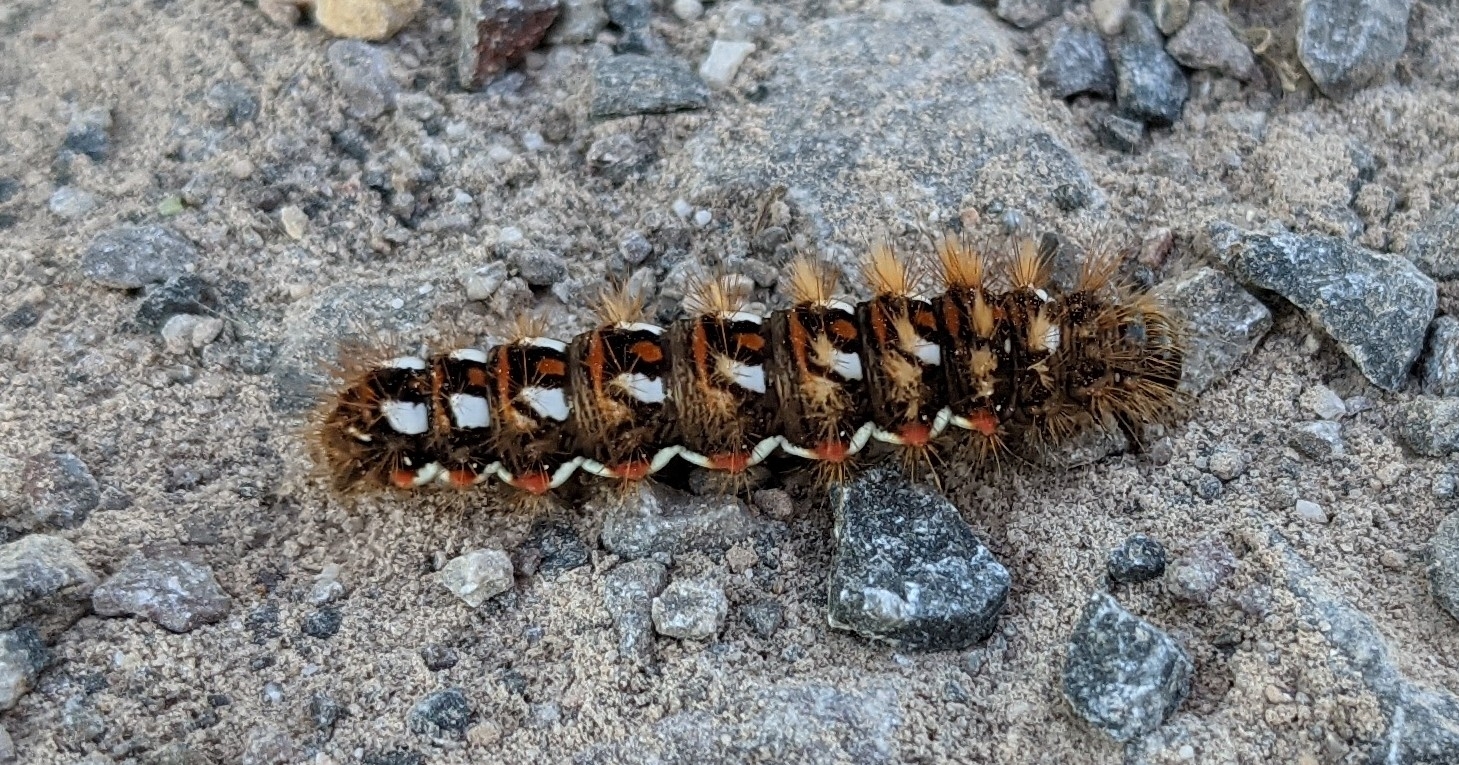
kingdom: Animalia
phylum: Arthropoda
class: Insecta
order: Lepidoptera
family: Noctuidae
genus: Acronicta
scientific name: Acronicta rumicis
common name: Knot grass
